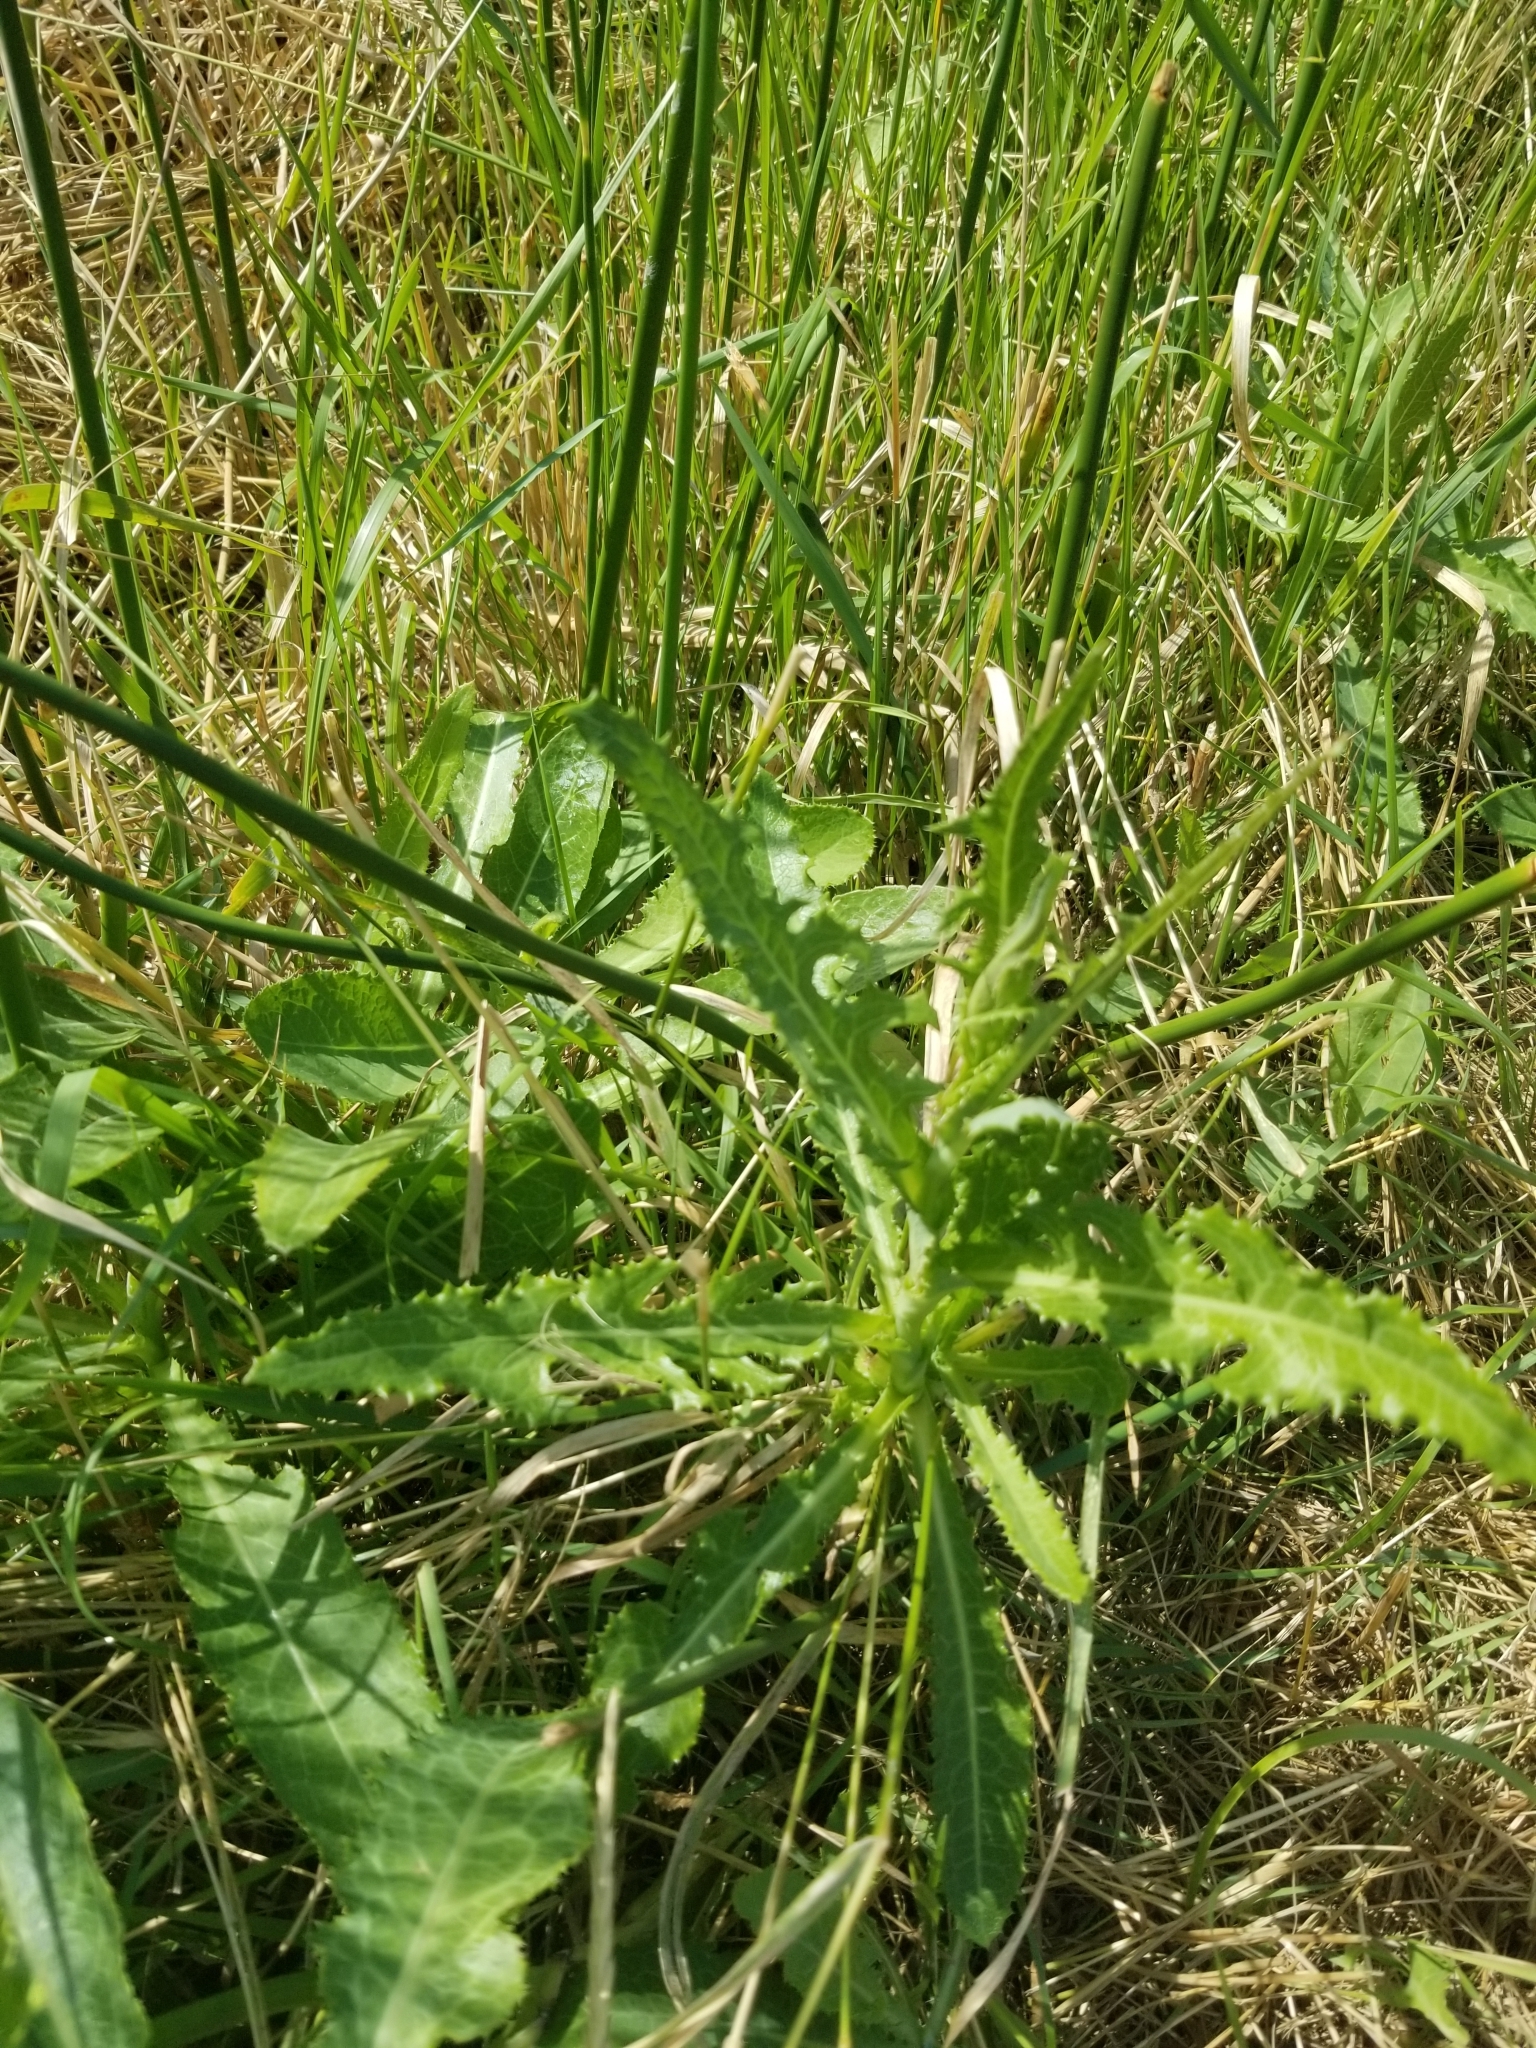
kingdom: Plantae
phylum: Tracheophyta
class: Magnoliopsida
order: Asterales
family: Asteraceae
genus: Sonchus
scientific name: Sonchus arvensis
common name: Perennial sow-thistle
